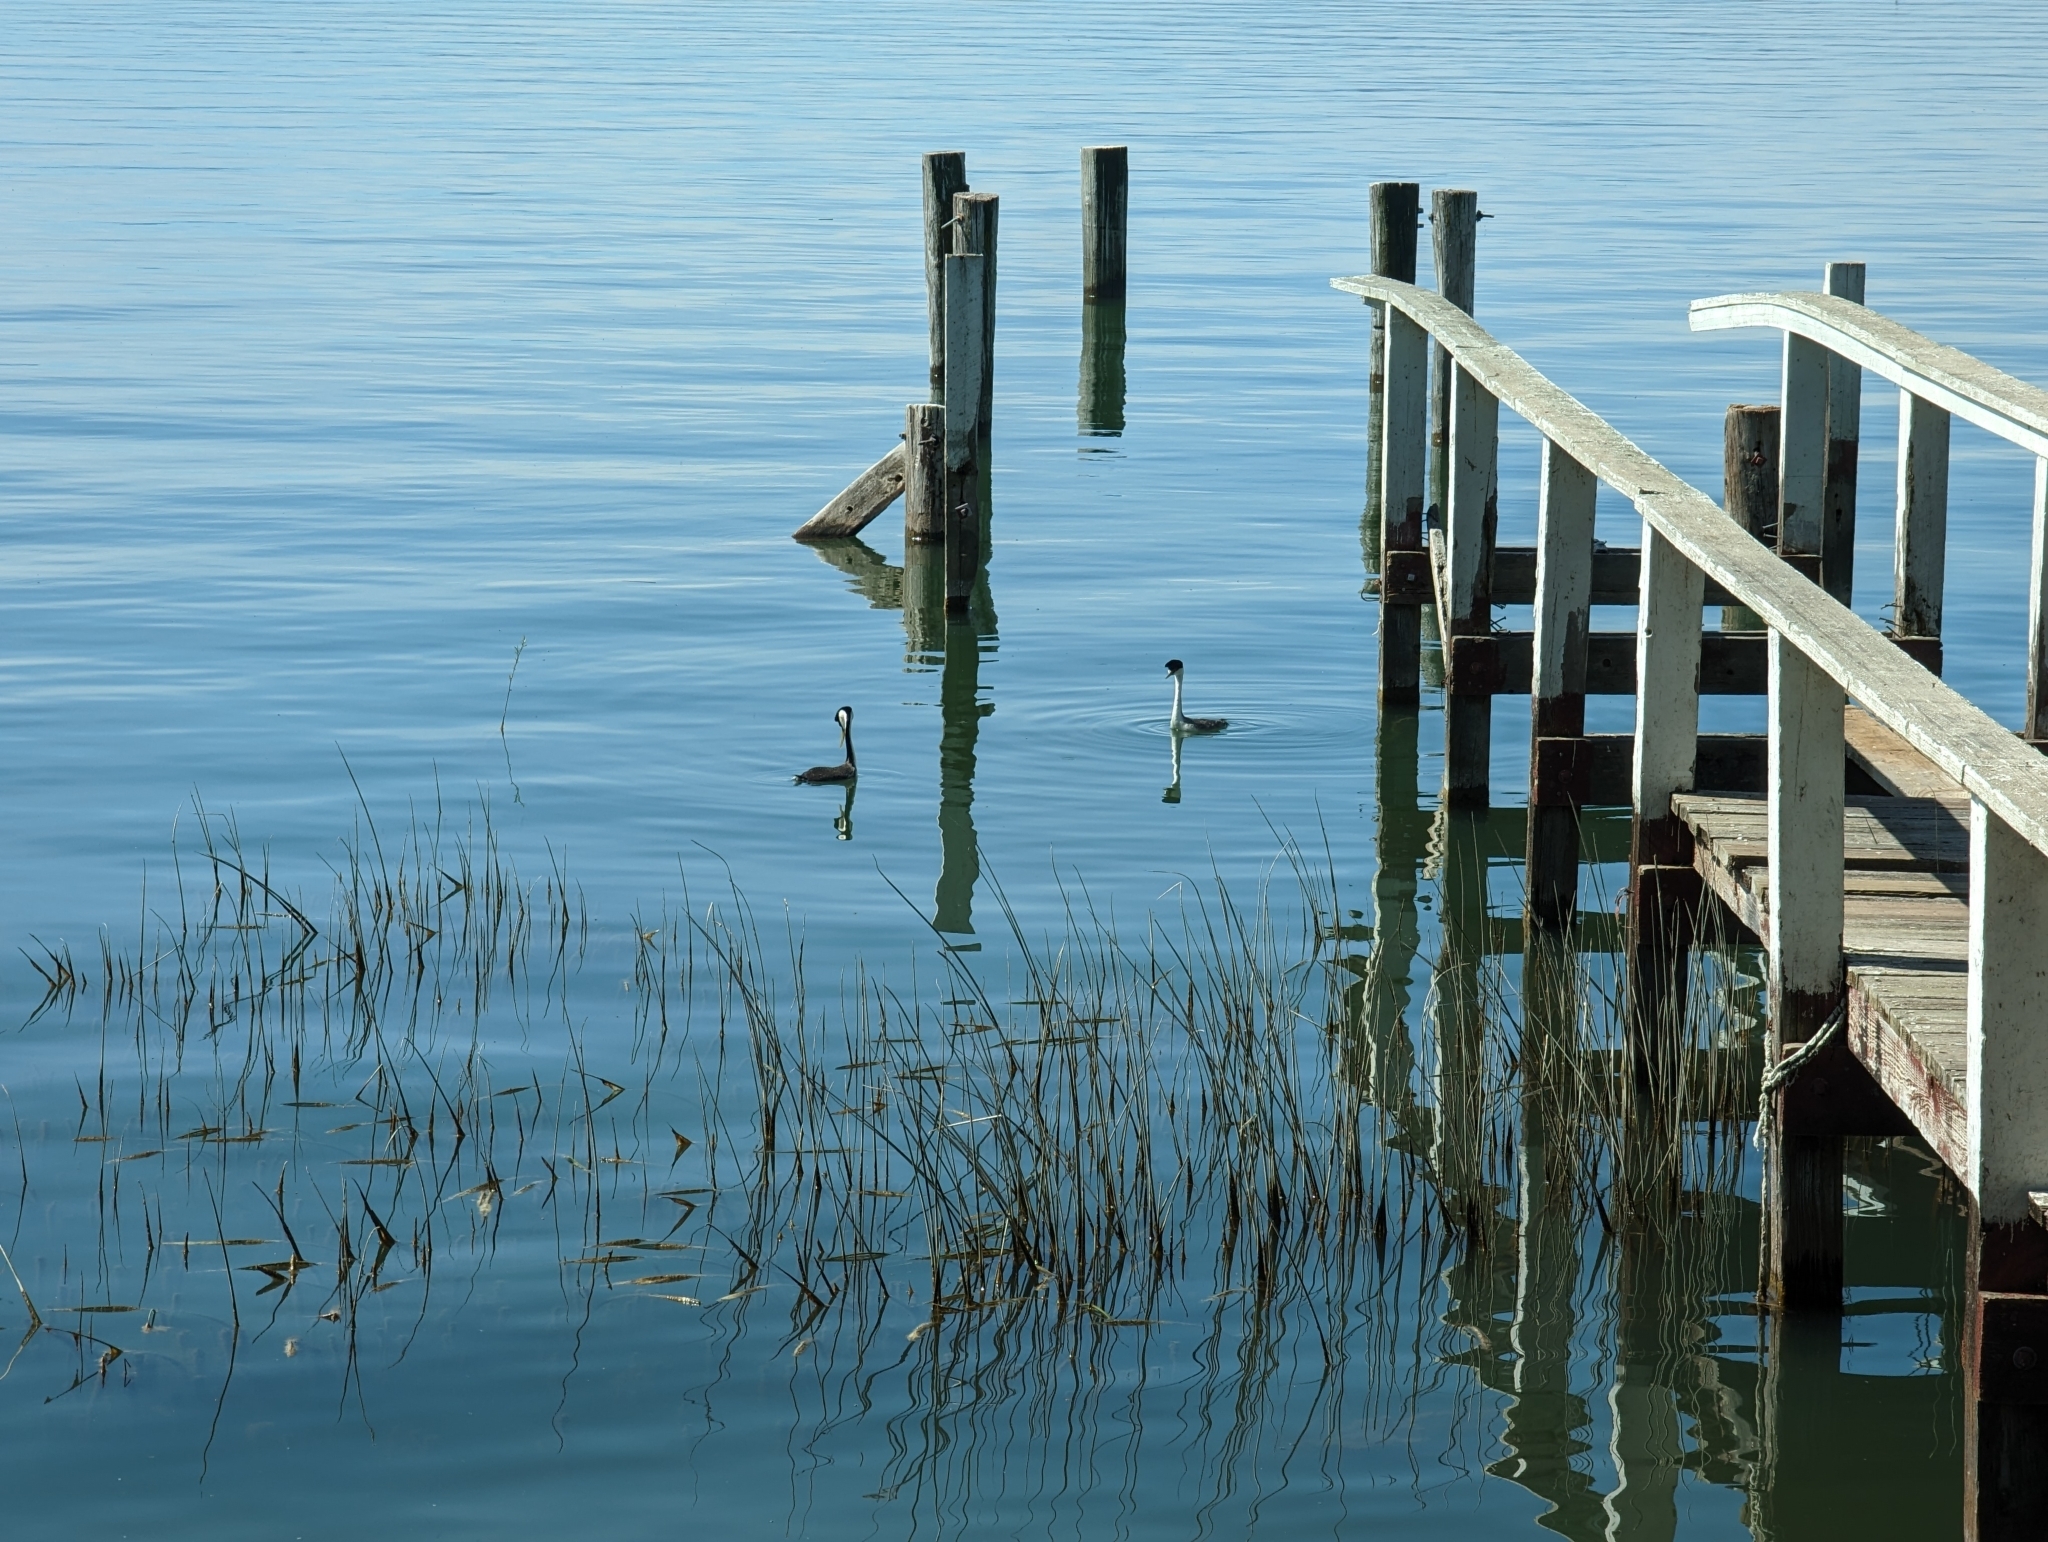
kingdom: Animalia
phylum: Chordata
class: Aves
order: Podicipediformes
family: Podicipedidae
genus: Aechmophorus
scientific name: Aechmophorus occidentalis
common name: Western grebe
